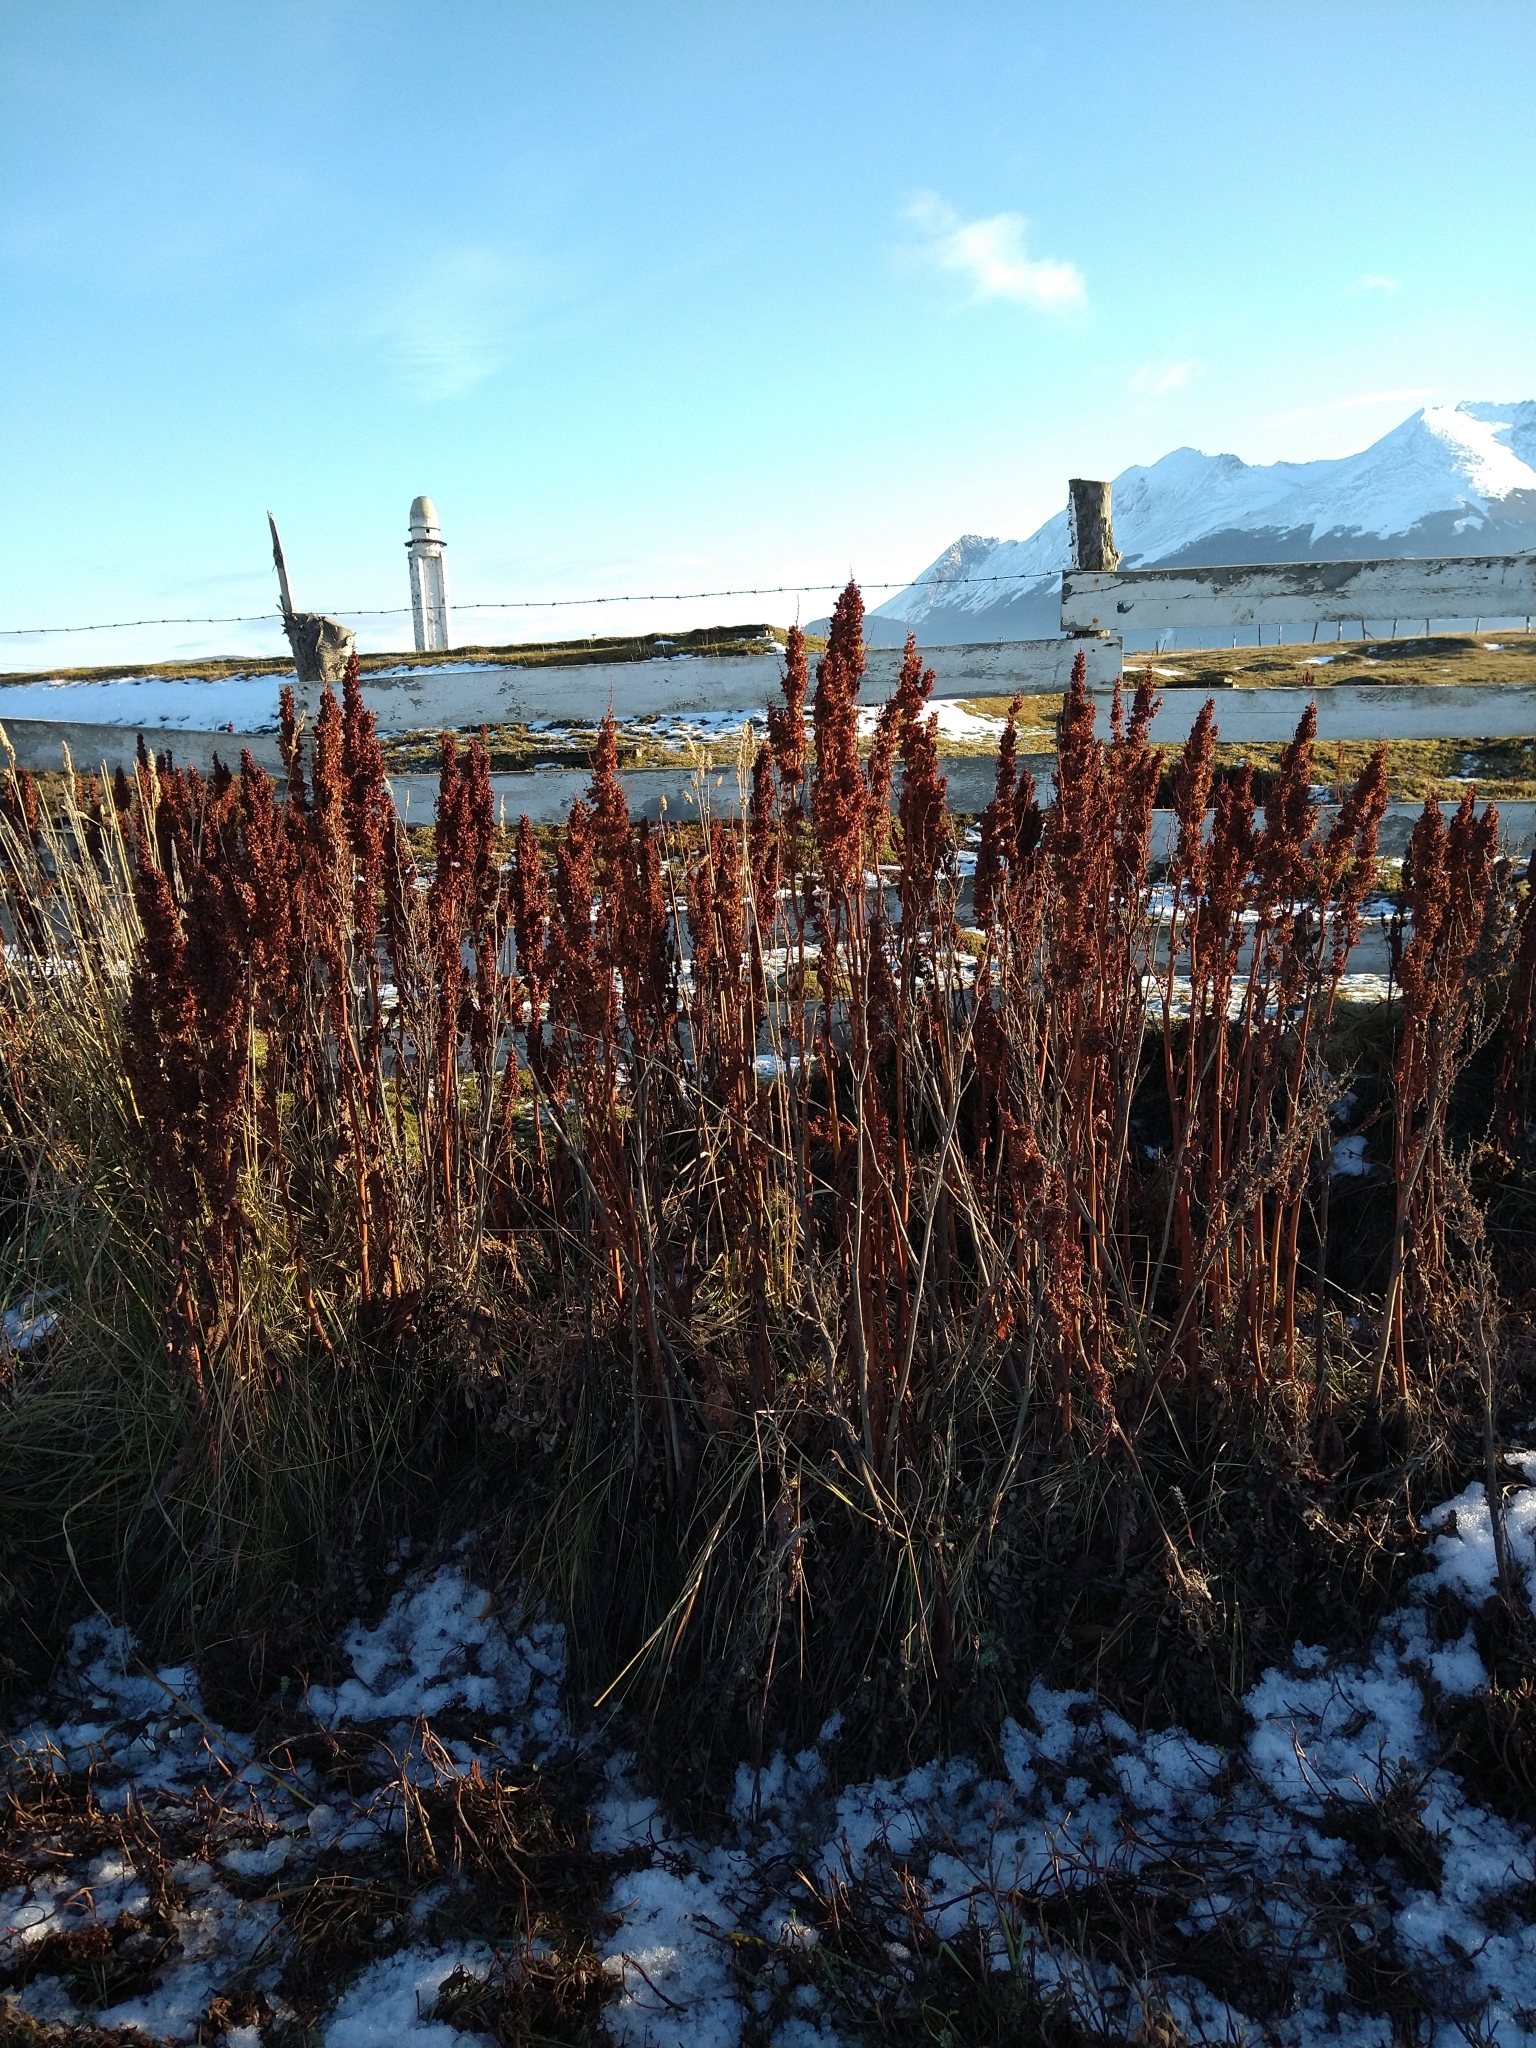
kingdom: Plantae
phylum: Tracheophyta
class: Magnoliopsida
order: Caryophyllales
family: Polygonaceae
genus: Rumex
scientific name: Rumex crispus
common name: Curled dock
